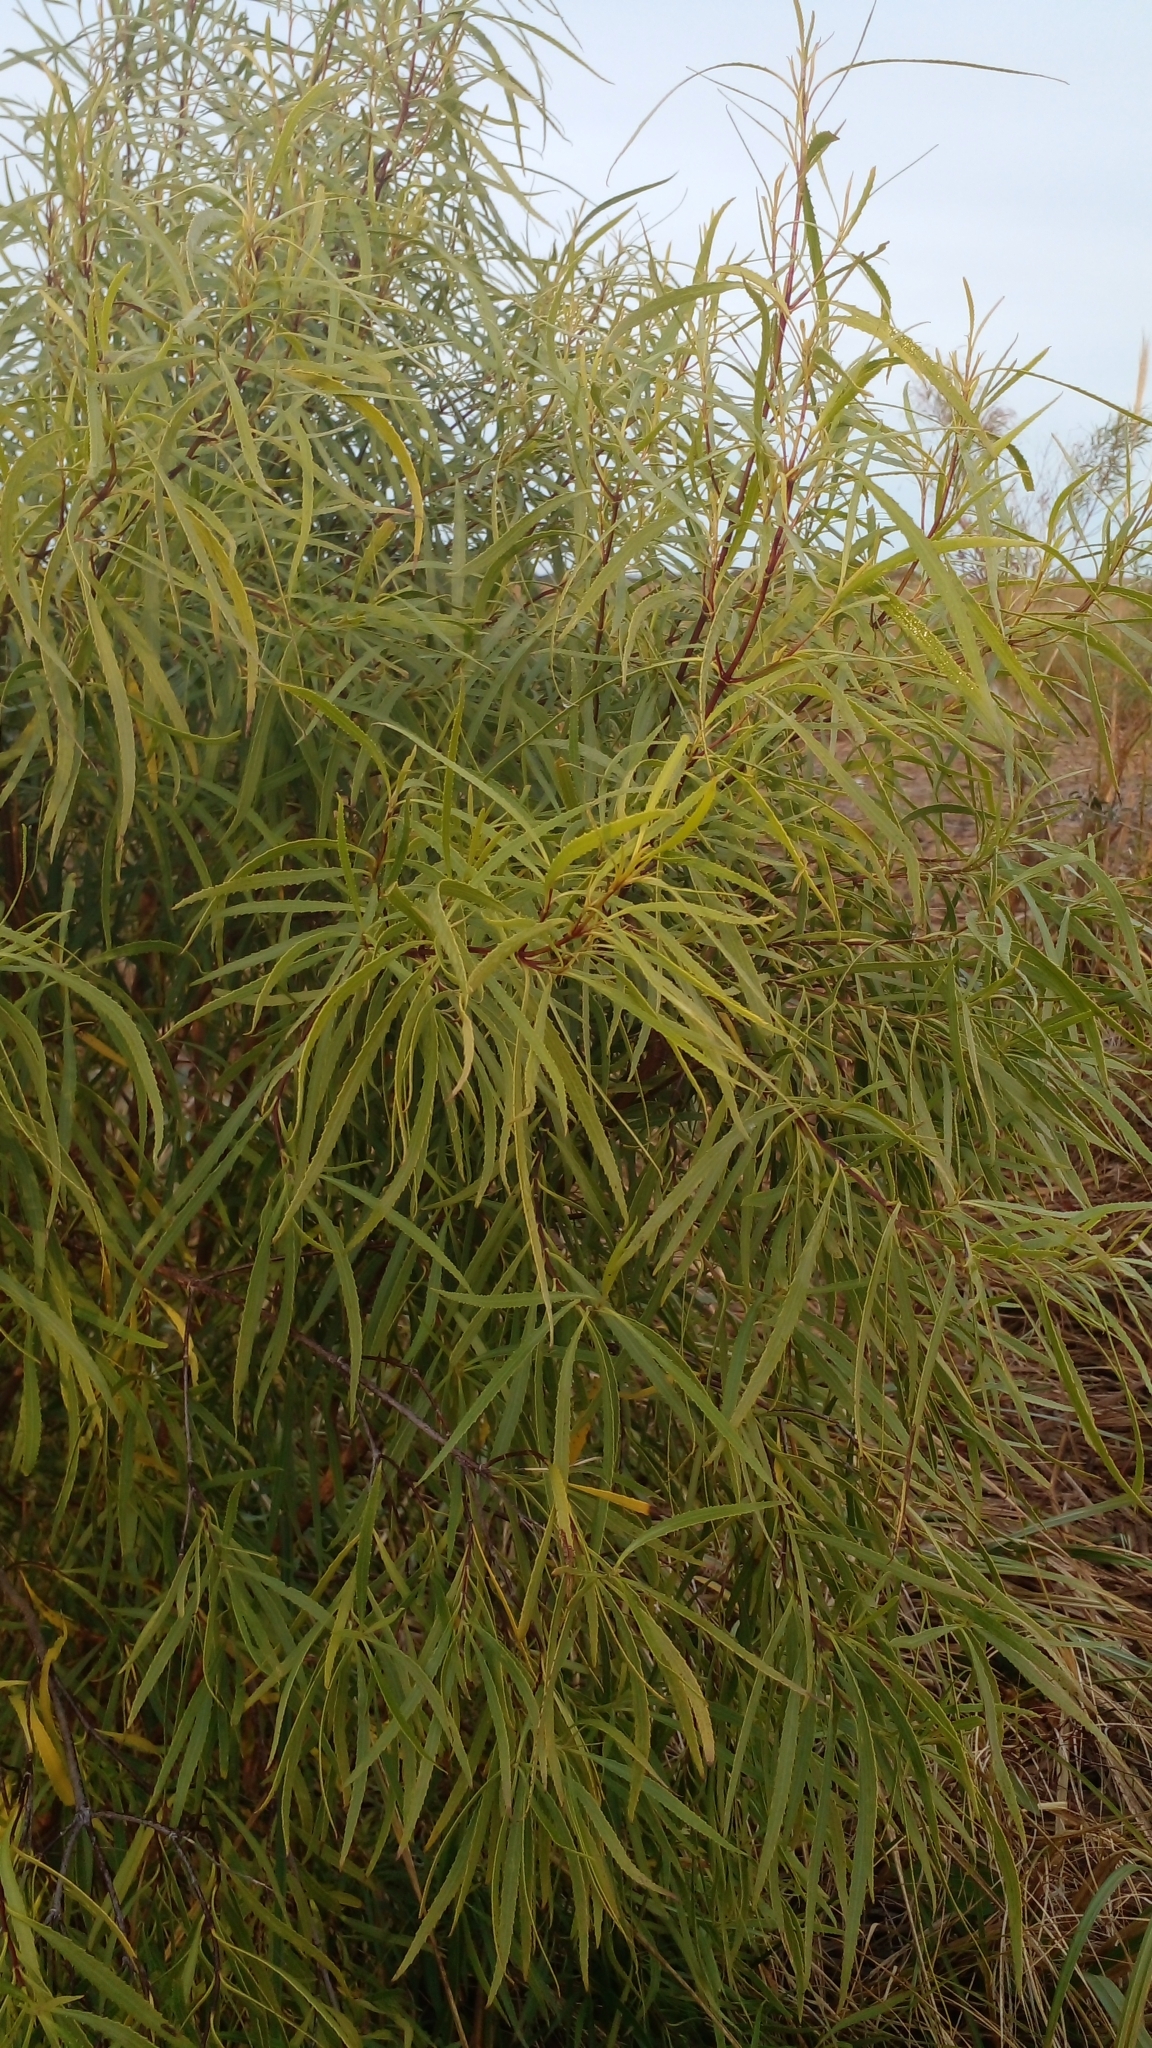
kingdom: Plantae
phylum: Tracheophyta
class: Magnoliopsida
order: Malpighiales
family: Salicaceae
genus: Salix
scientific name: Salix humboldtiana
